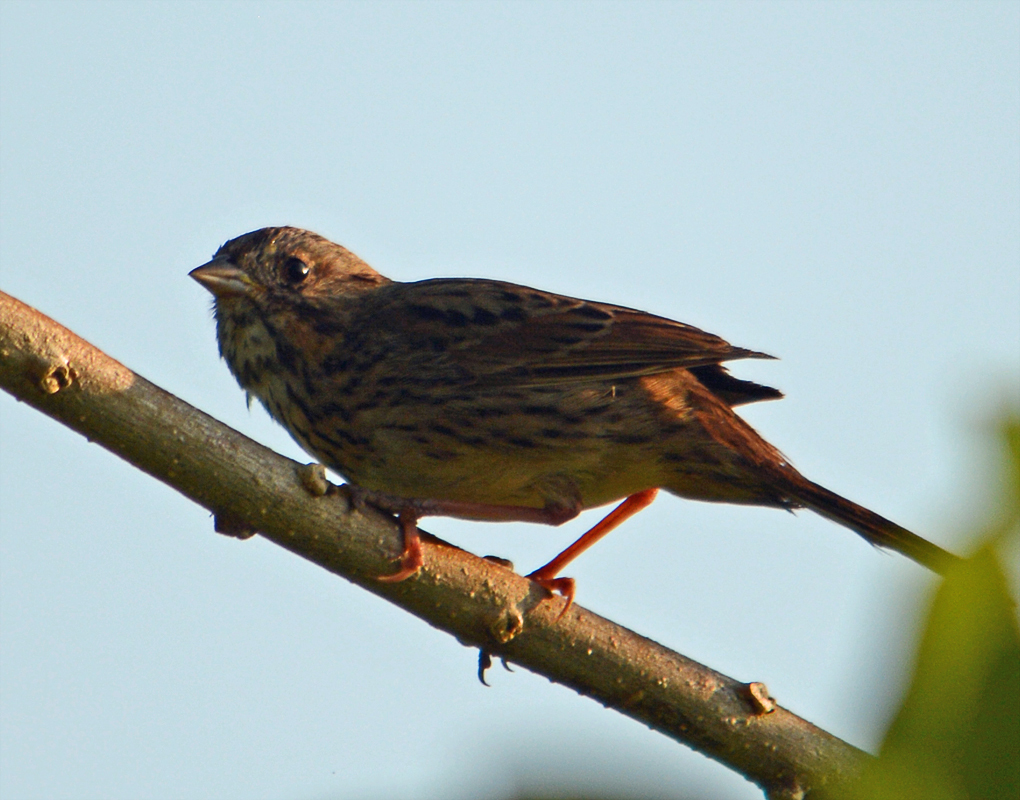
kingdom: Animalia
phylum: Chordata
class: Aves
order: Passeriformes
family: Passerellidae
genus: Melospiza
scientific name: Melospiza lincolnii
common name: Lincoln's sparrow
